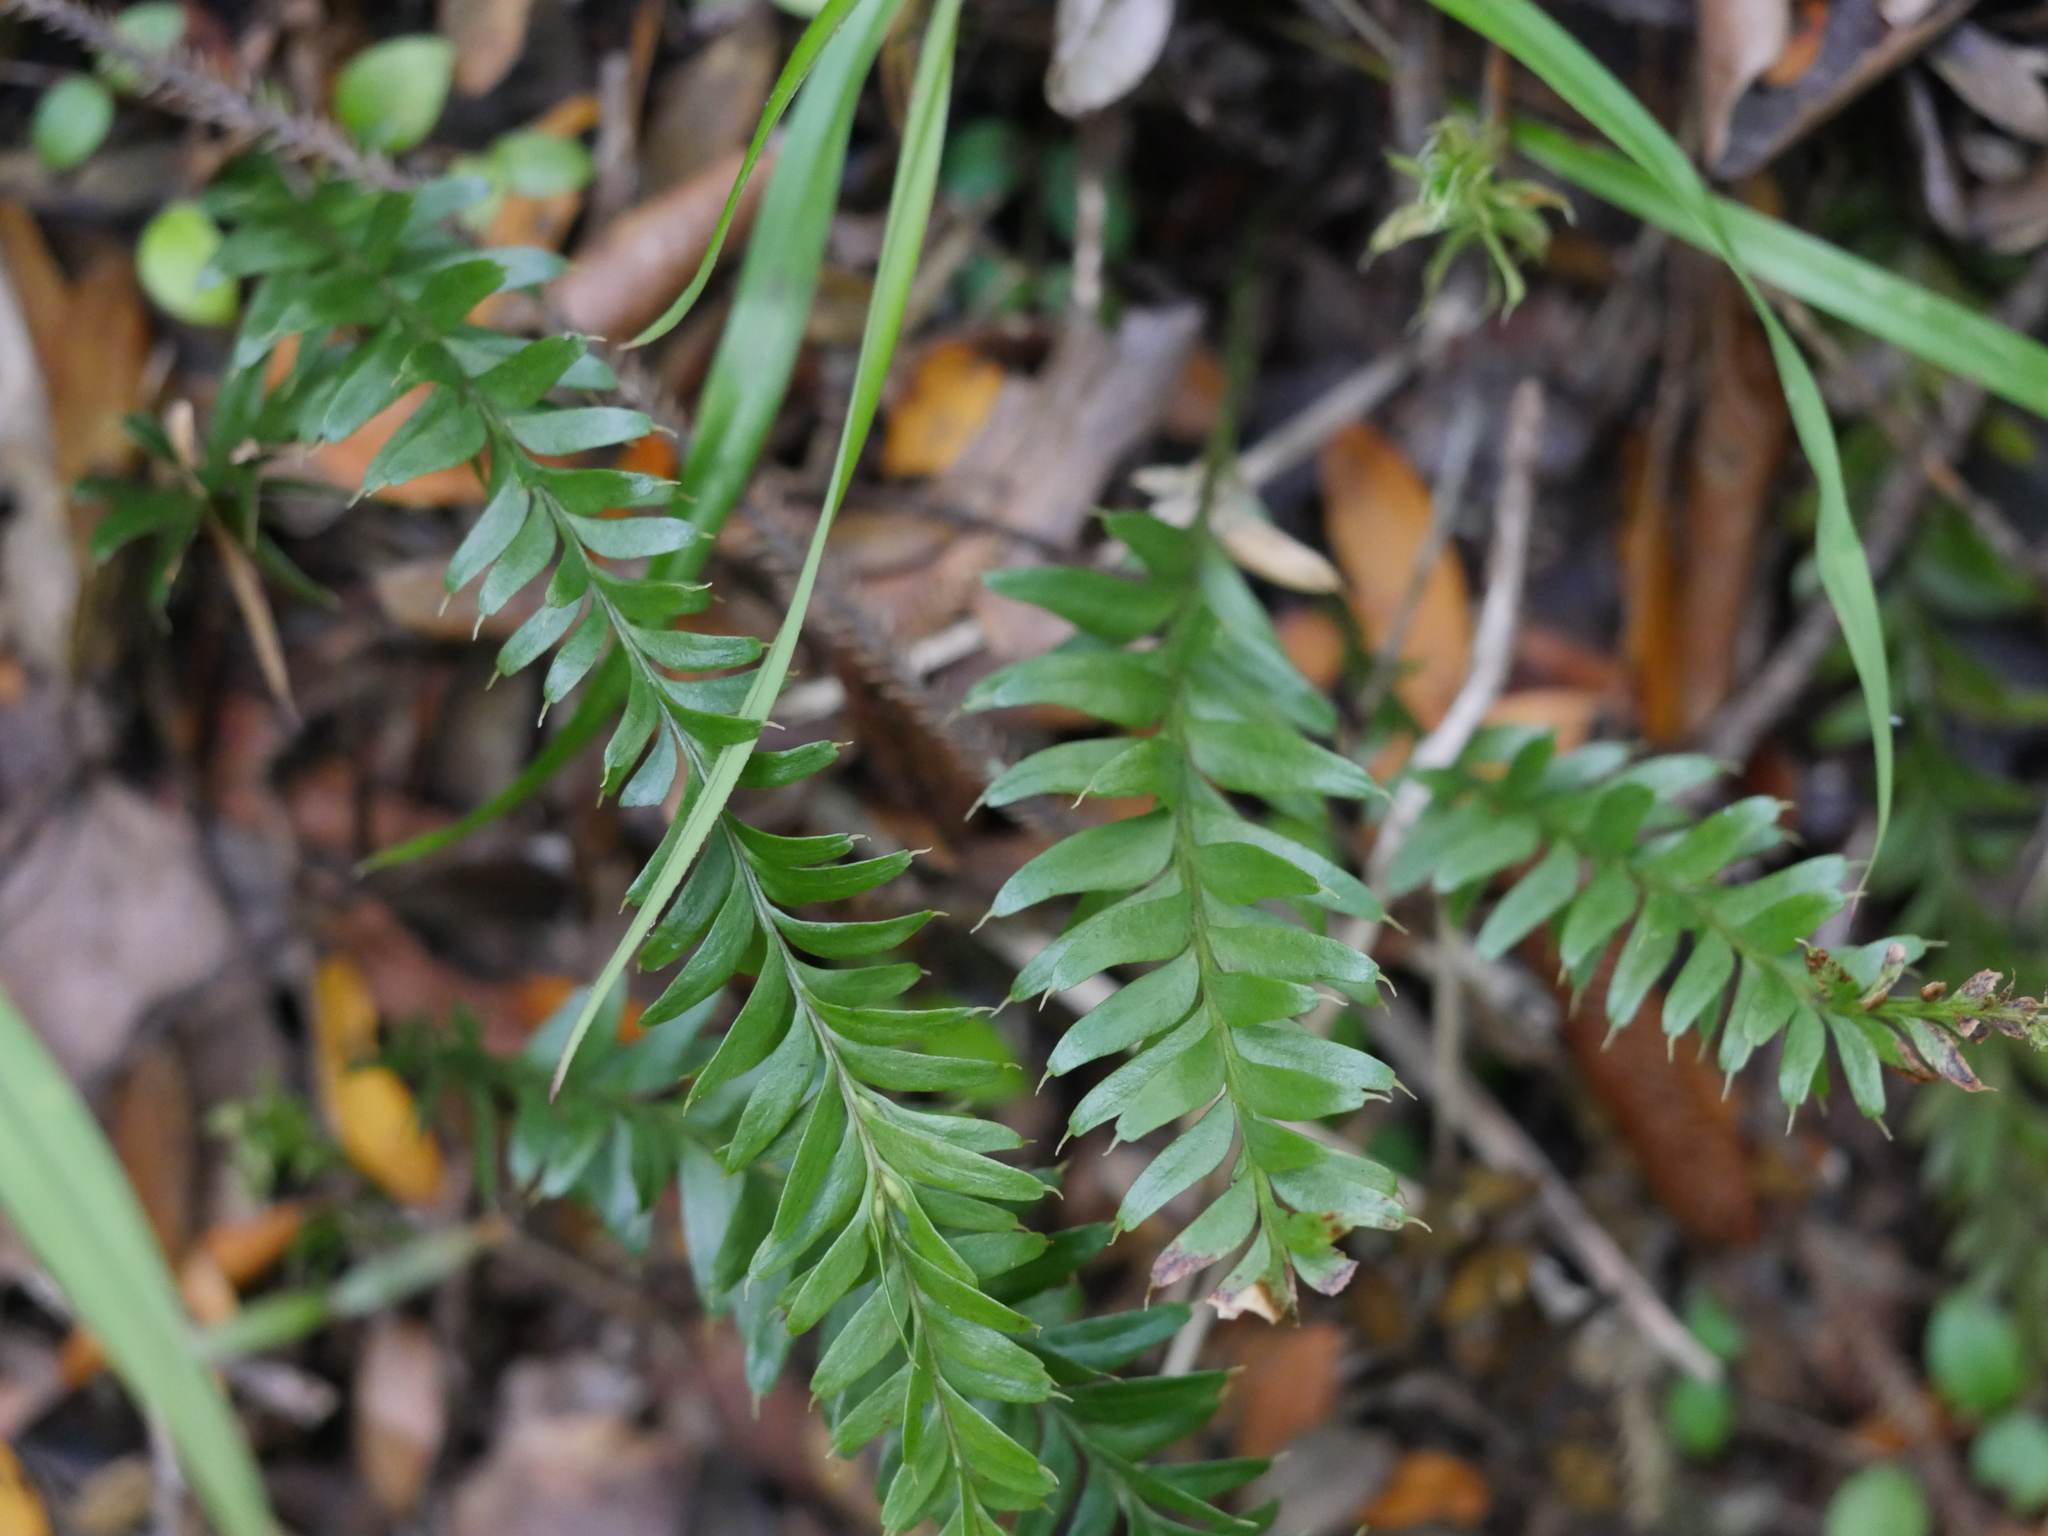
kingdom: Plantae
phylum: Tracheophyta
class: Polypodiopsida
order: Psilotales
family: Psilotaceae
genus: Tmesipteris
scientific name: Tmesipteris tannensis
